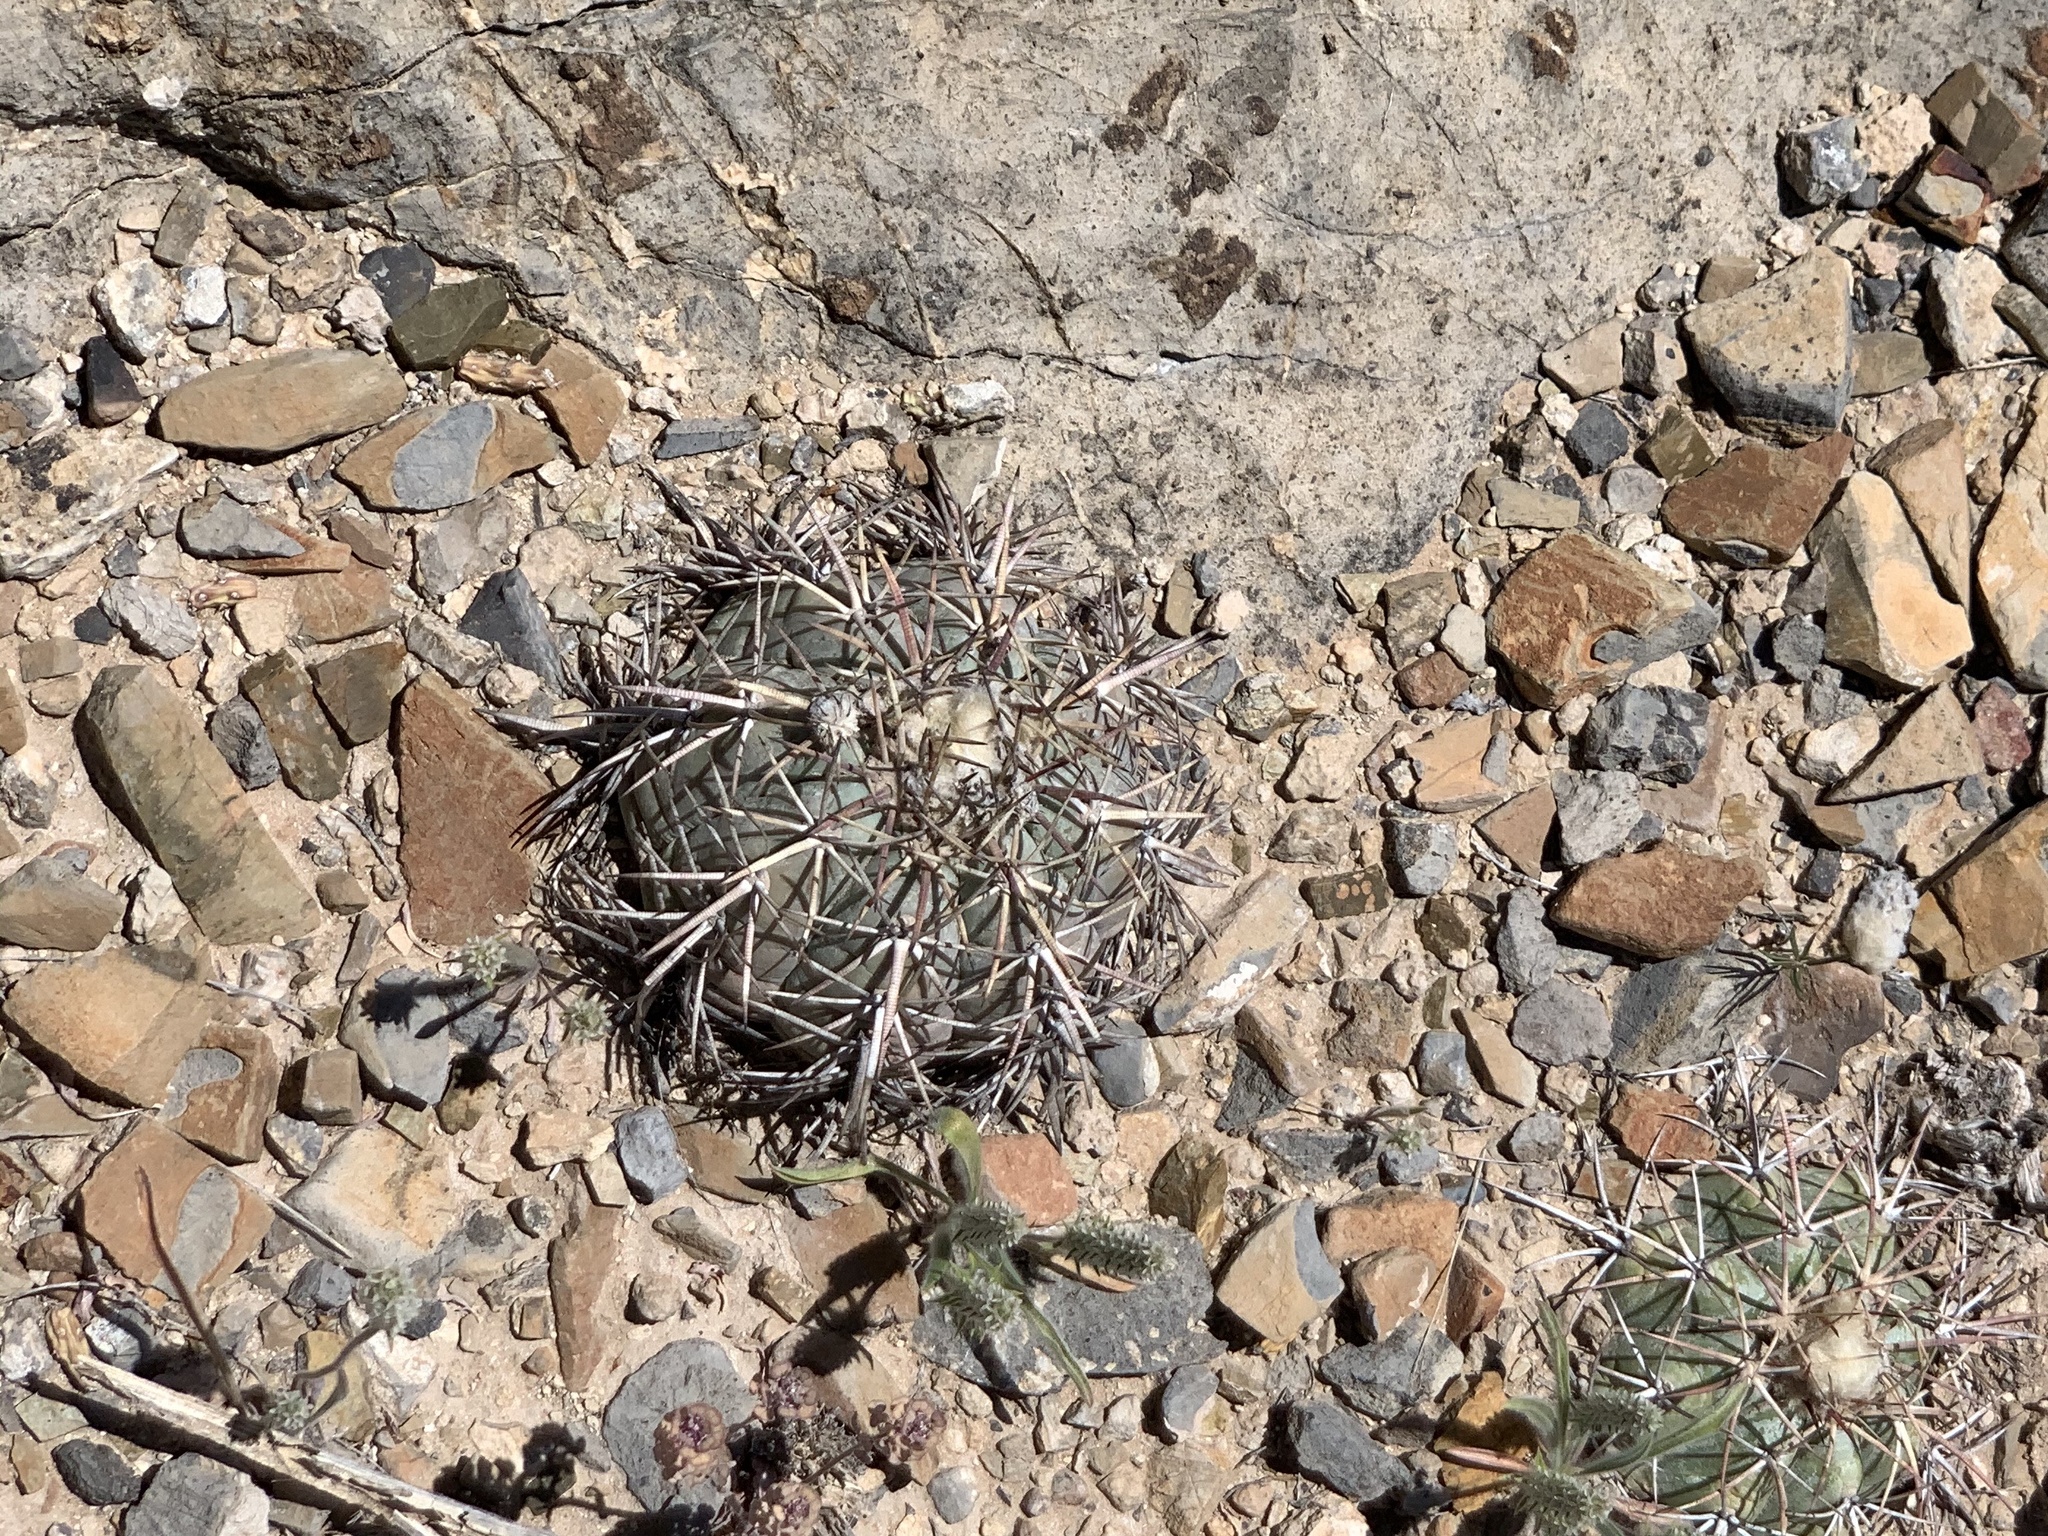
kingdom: Plantae
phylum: Tracheophyta
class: Magnoliopsida
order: Caryophyllales
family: Cactaceae
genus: Echinocactus
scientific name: Echinocactus horizonthalonius
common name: Devilshead
